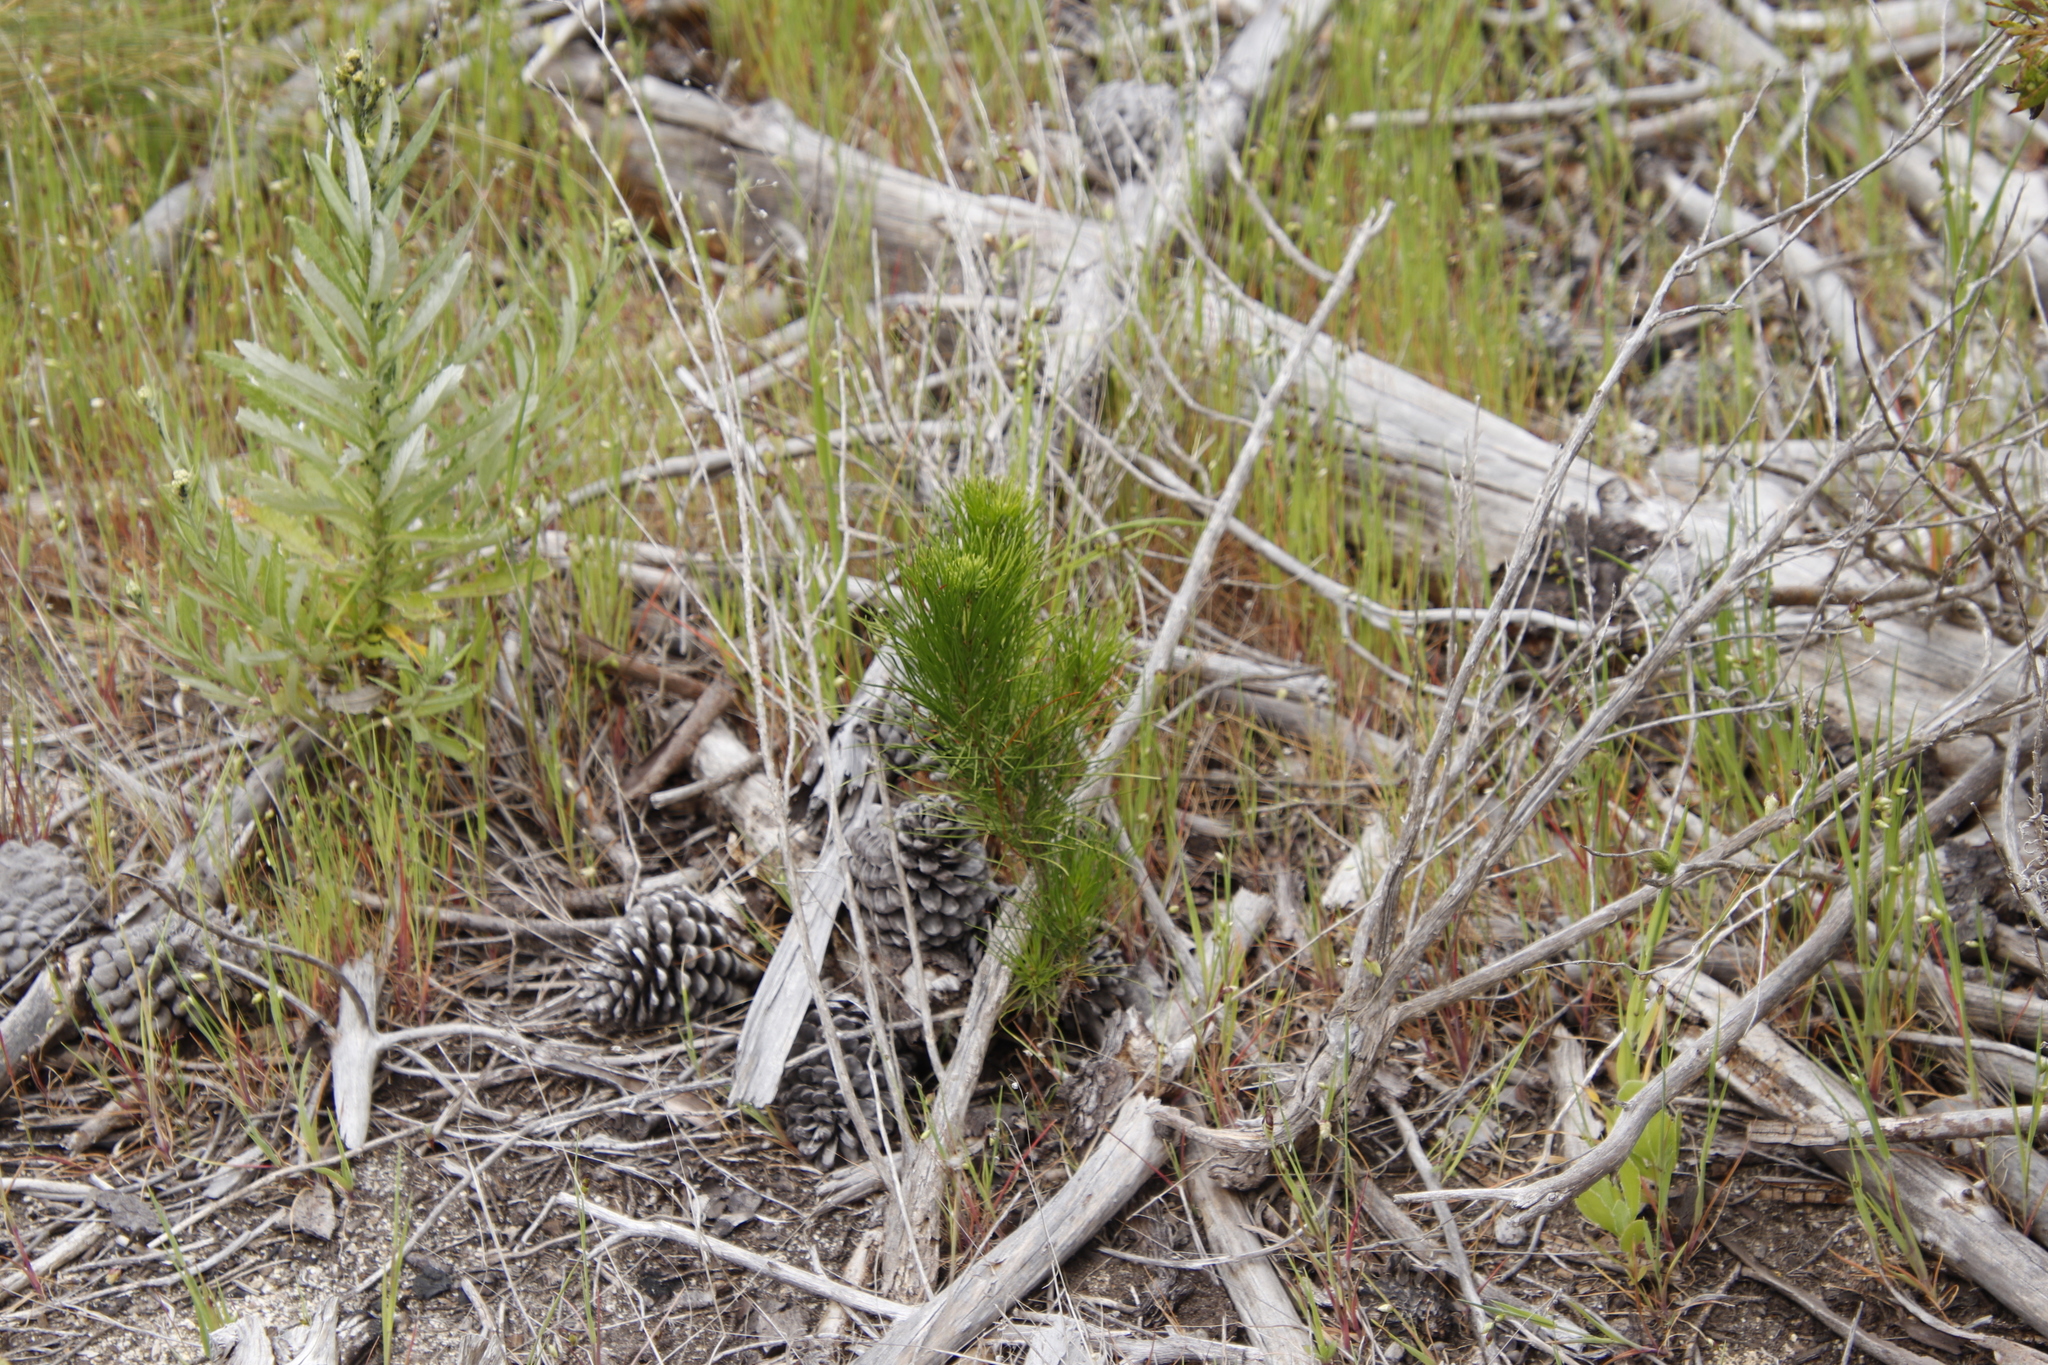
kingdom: Plantae
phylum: Tracheophyta
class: Pinopsida
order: Pinales
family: Pinaceae
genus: Pinus
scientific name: Pinus radiata
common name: Monterey pine
